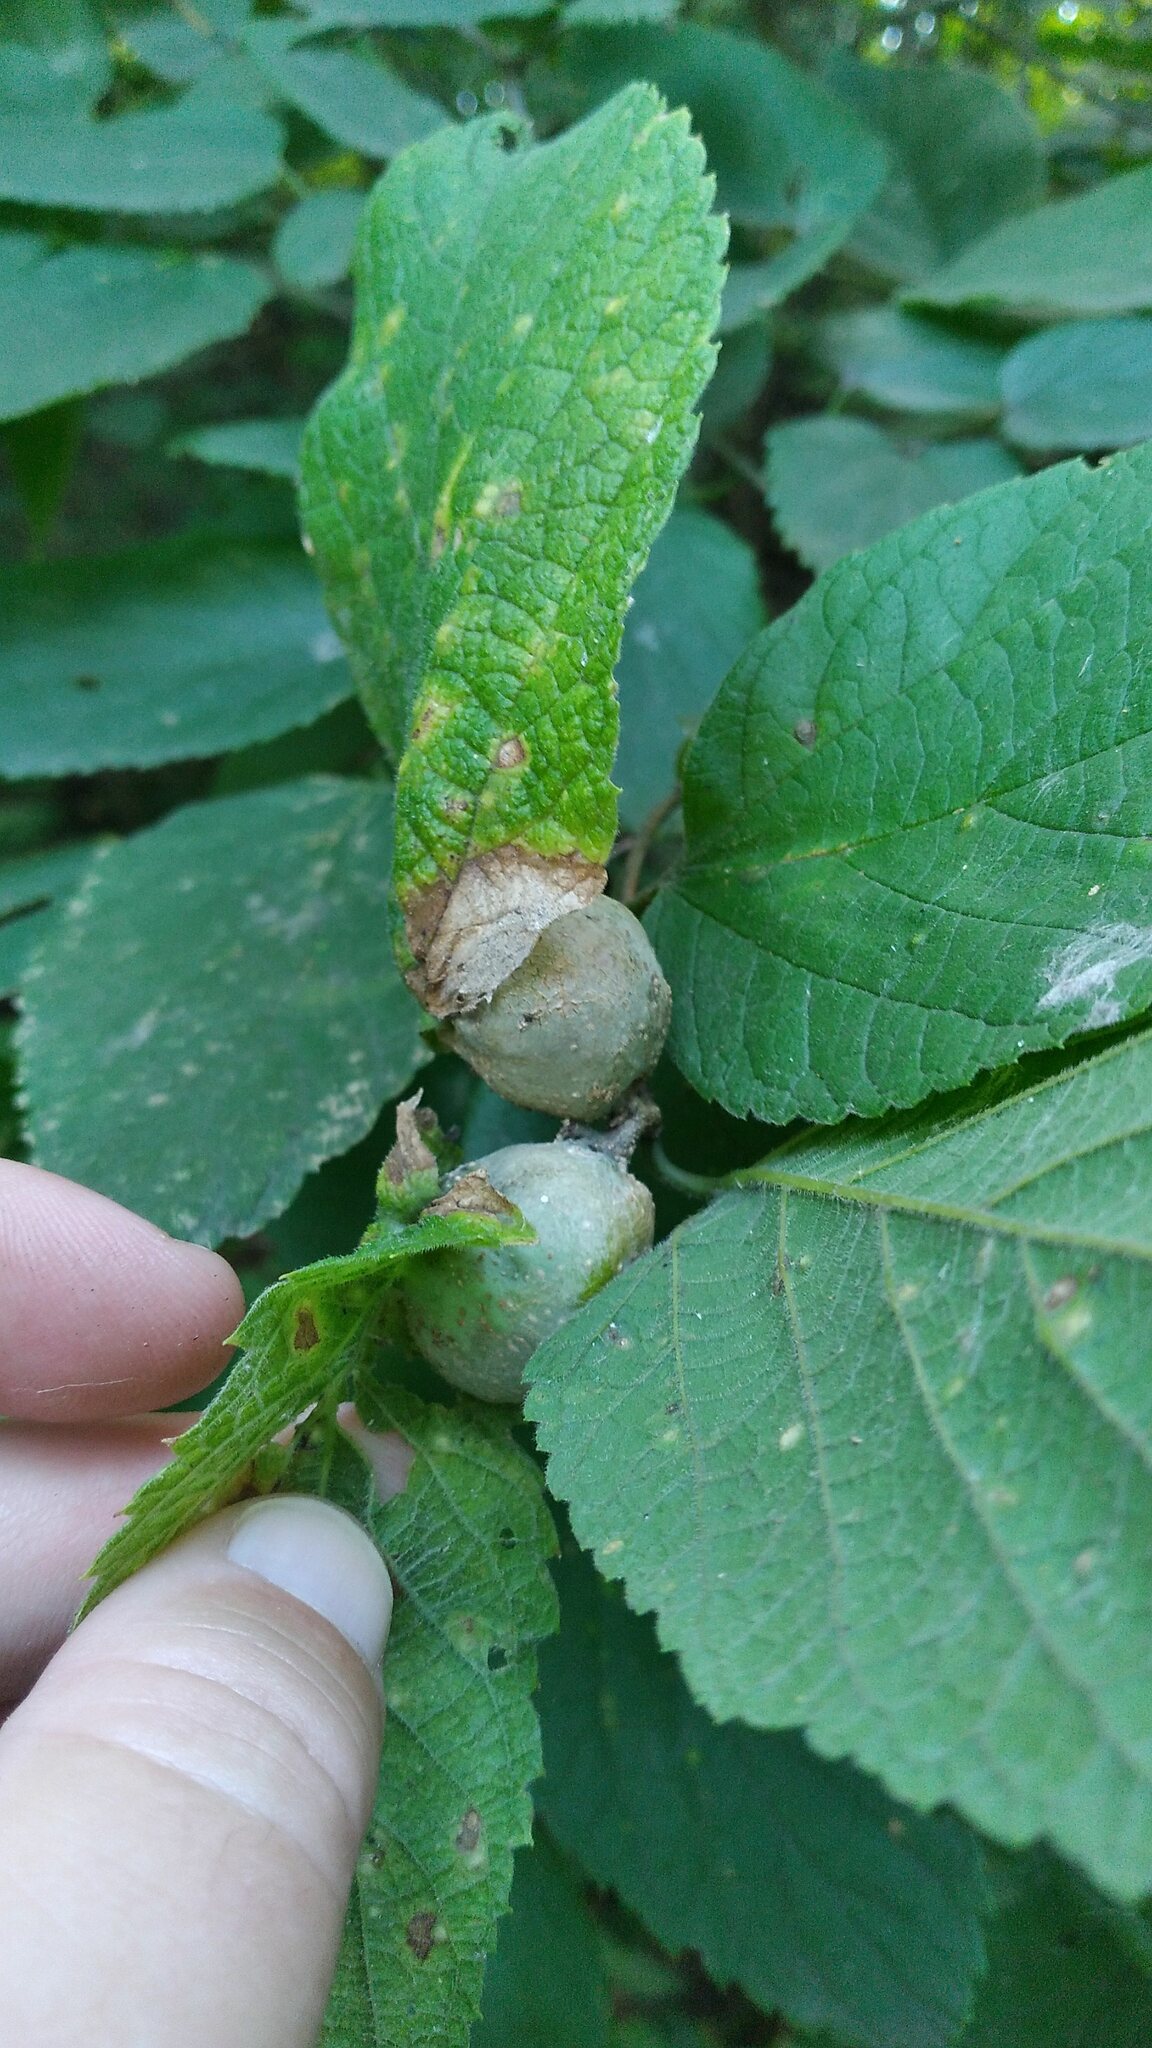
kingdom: Animalia
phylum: Arthropoda
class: Insecta
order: Hemiptera
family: Aphalaridae
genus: Pachypsylla
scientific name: Pachypsylla venusta
